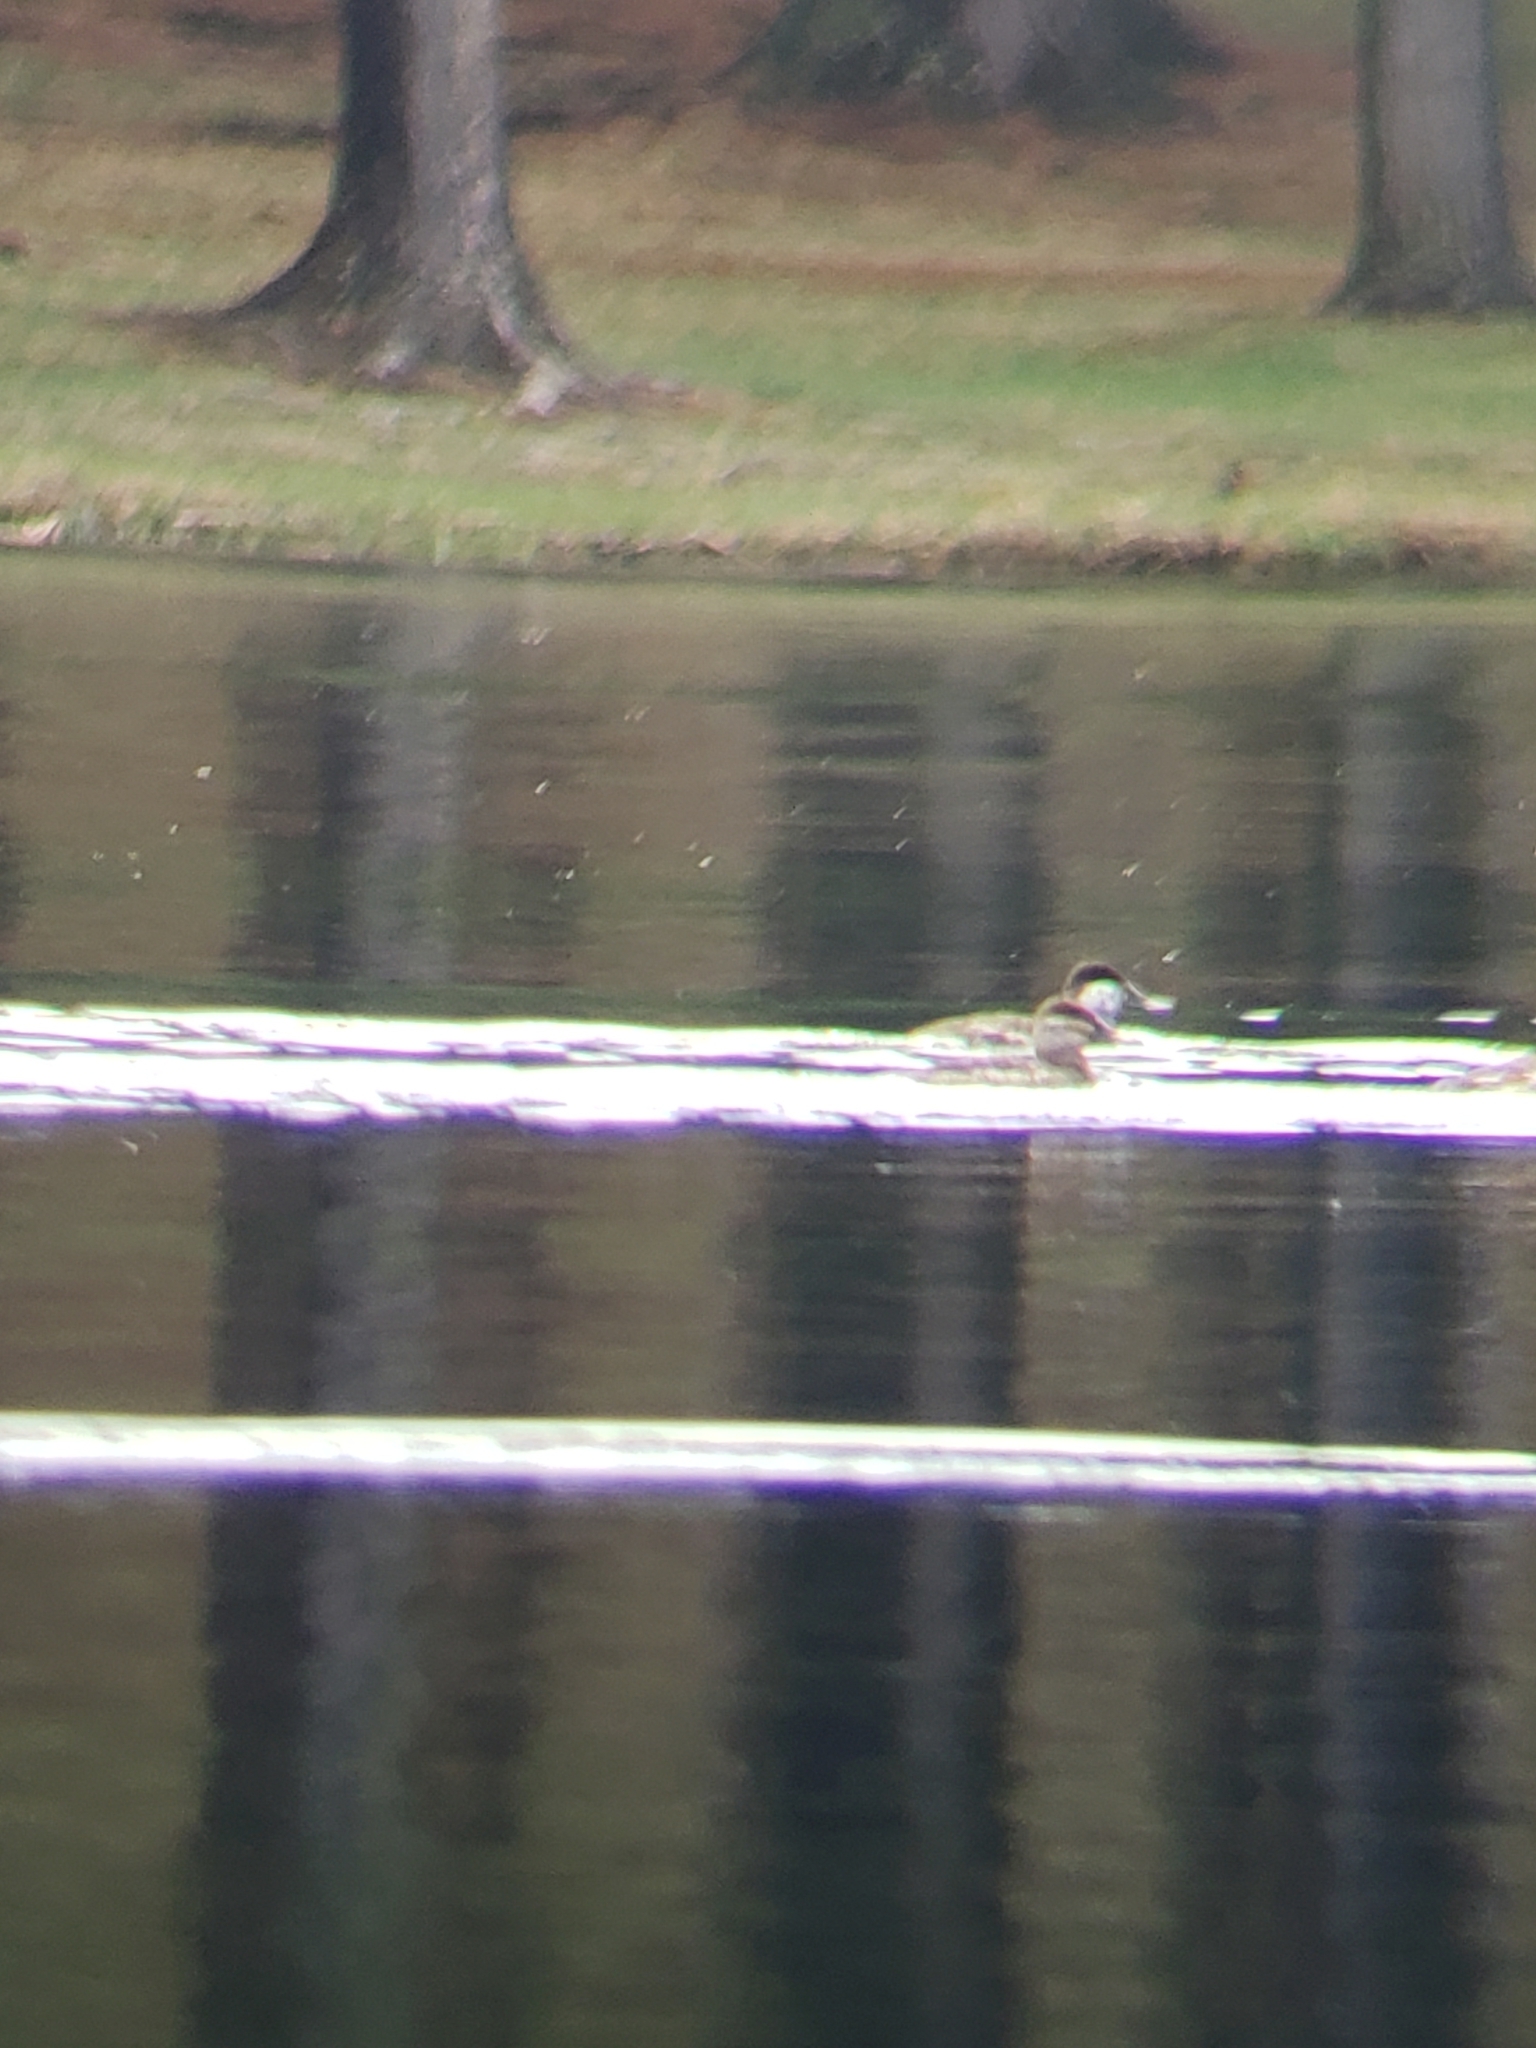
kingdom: Animalia
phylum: Chordata
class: Aves
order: Anseriformes
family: Anatidae
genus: Oxyura
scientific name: Oxyura jamaicensis
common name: Ruddy duck
